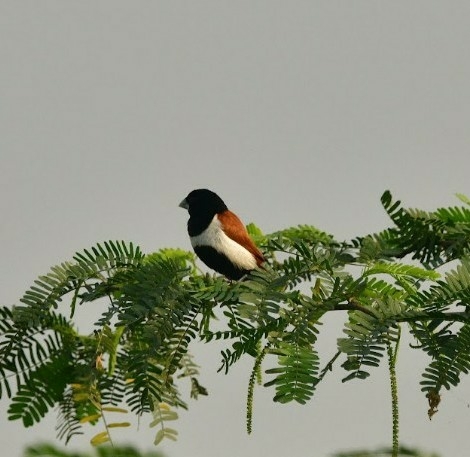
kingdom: Animalia
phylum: Chordata
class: Aves
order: Passeriformes
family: Estrildidae
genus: Lonchura
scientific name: Lonchura malacca
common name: Tricolored munia
